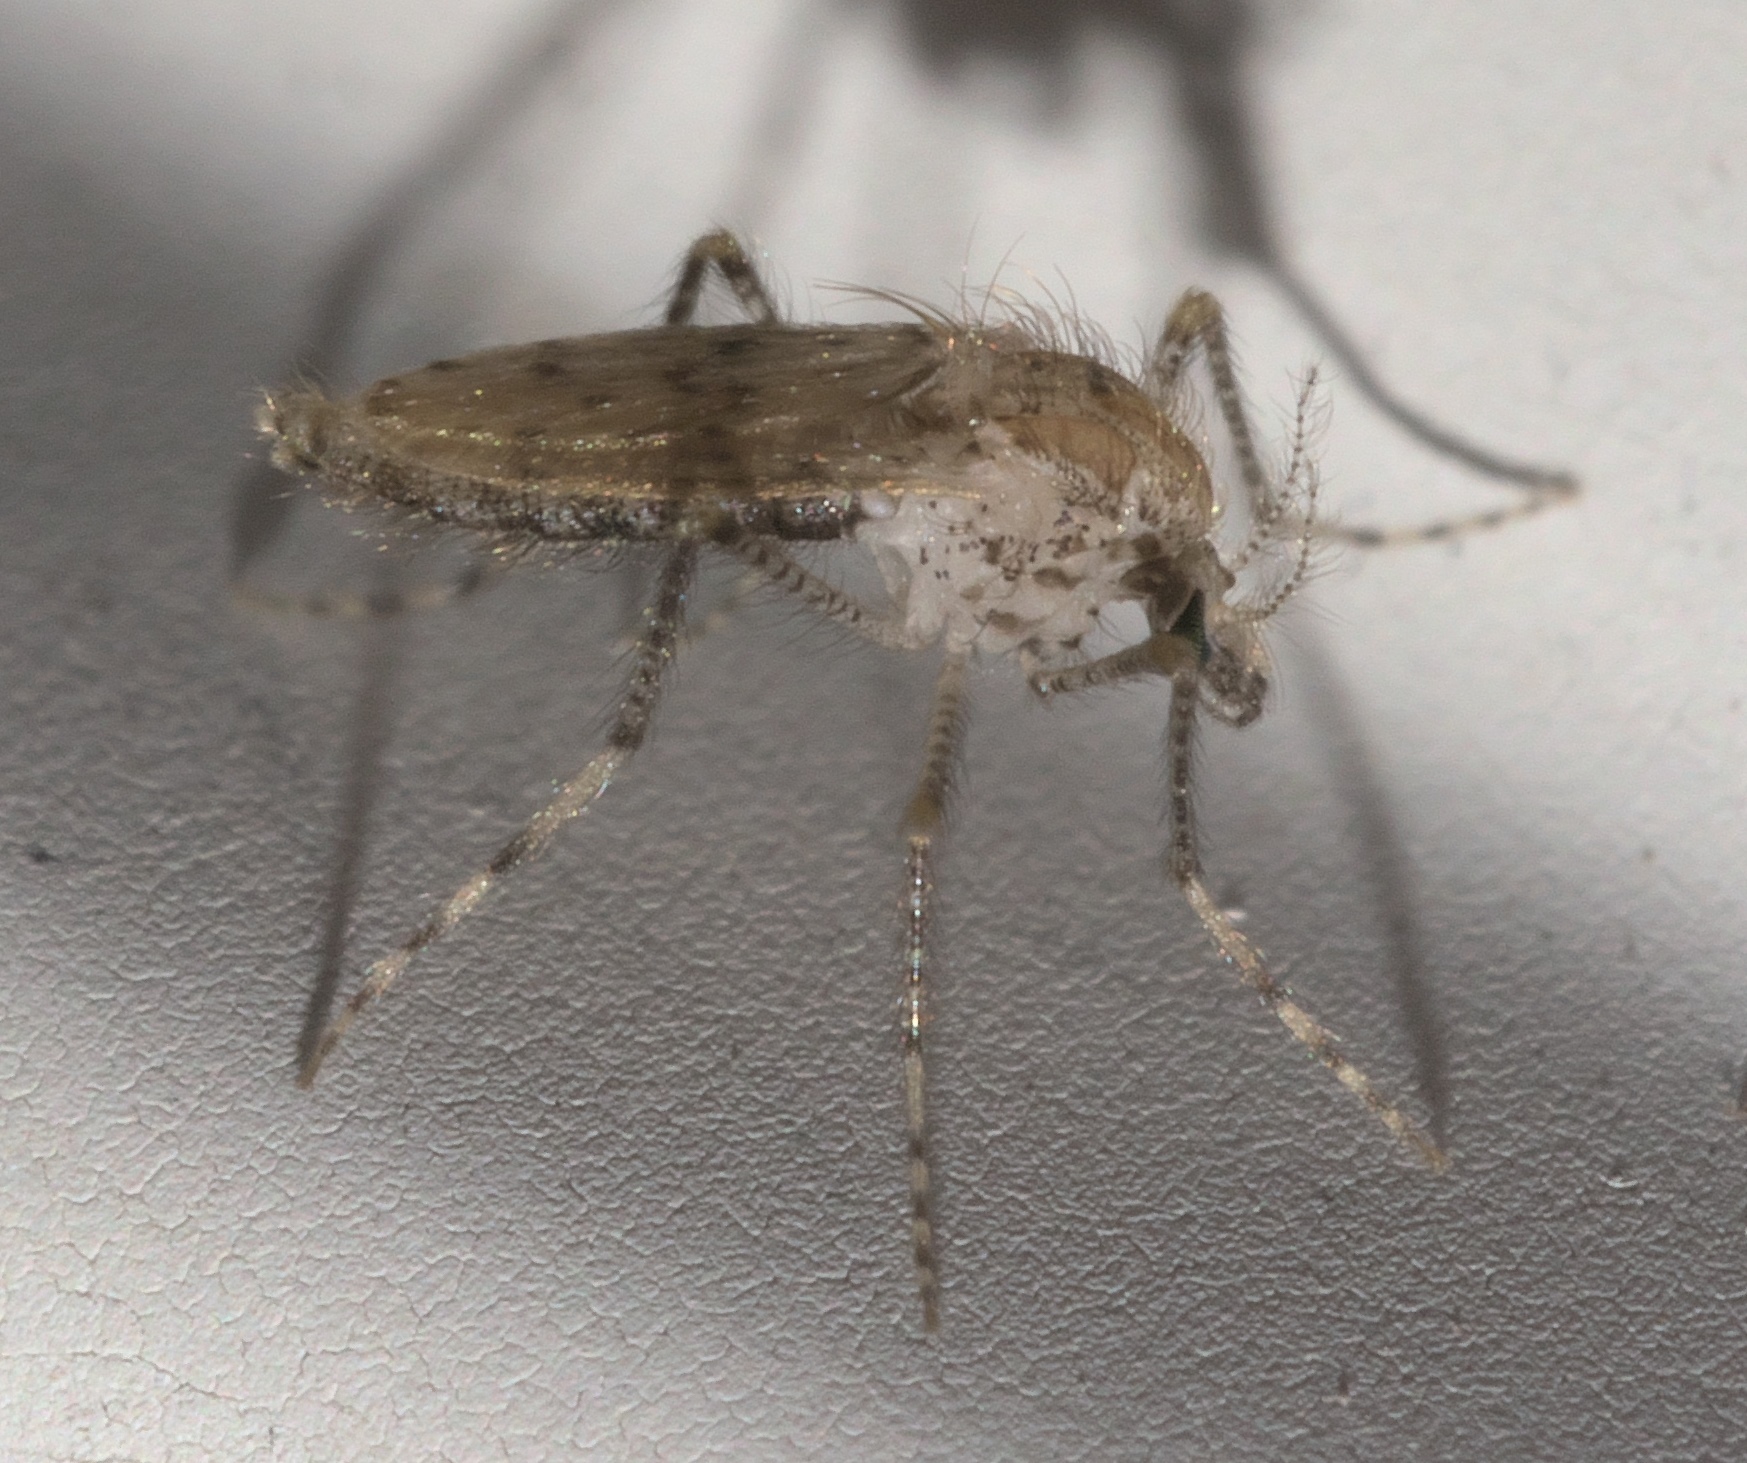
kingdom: Animalia
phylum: Arthropoda
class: Insecta
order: Diptera
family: Chaoboridae
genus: Chaoborus
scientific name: Chaoborus punctipennis
